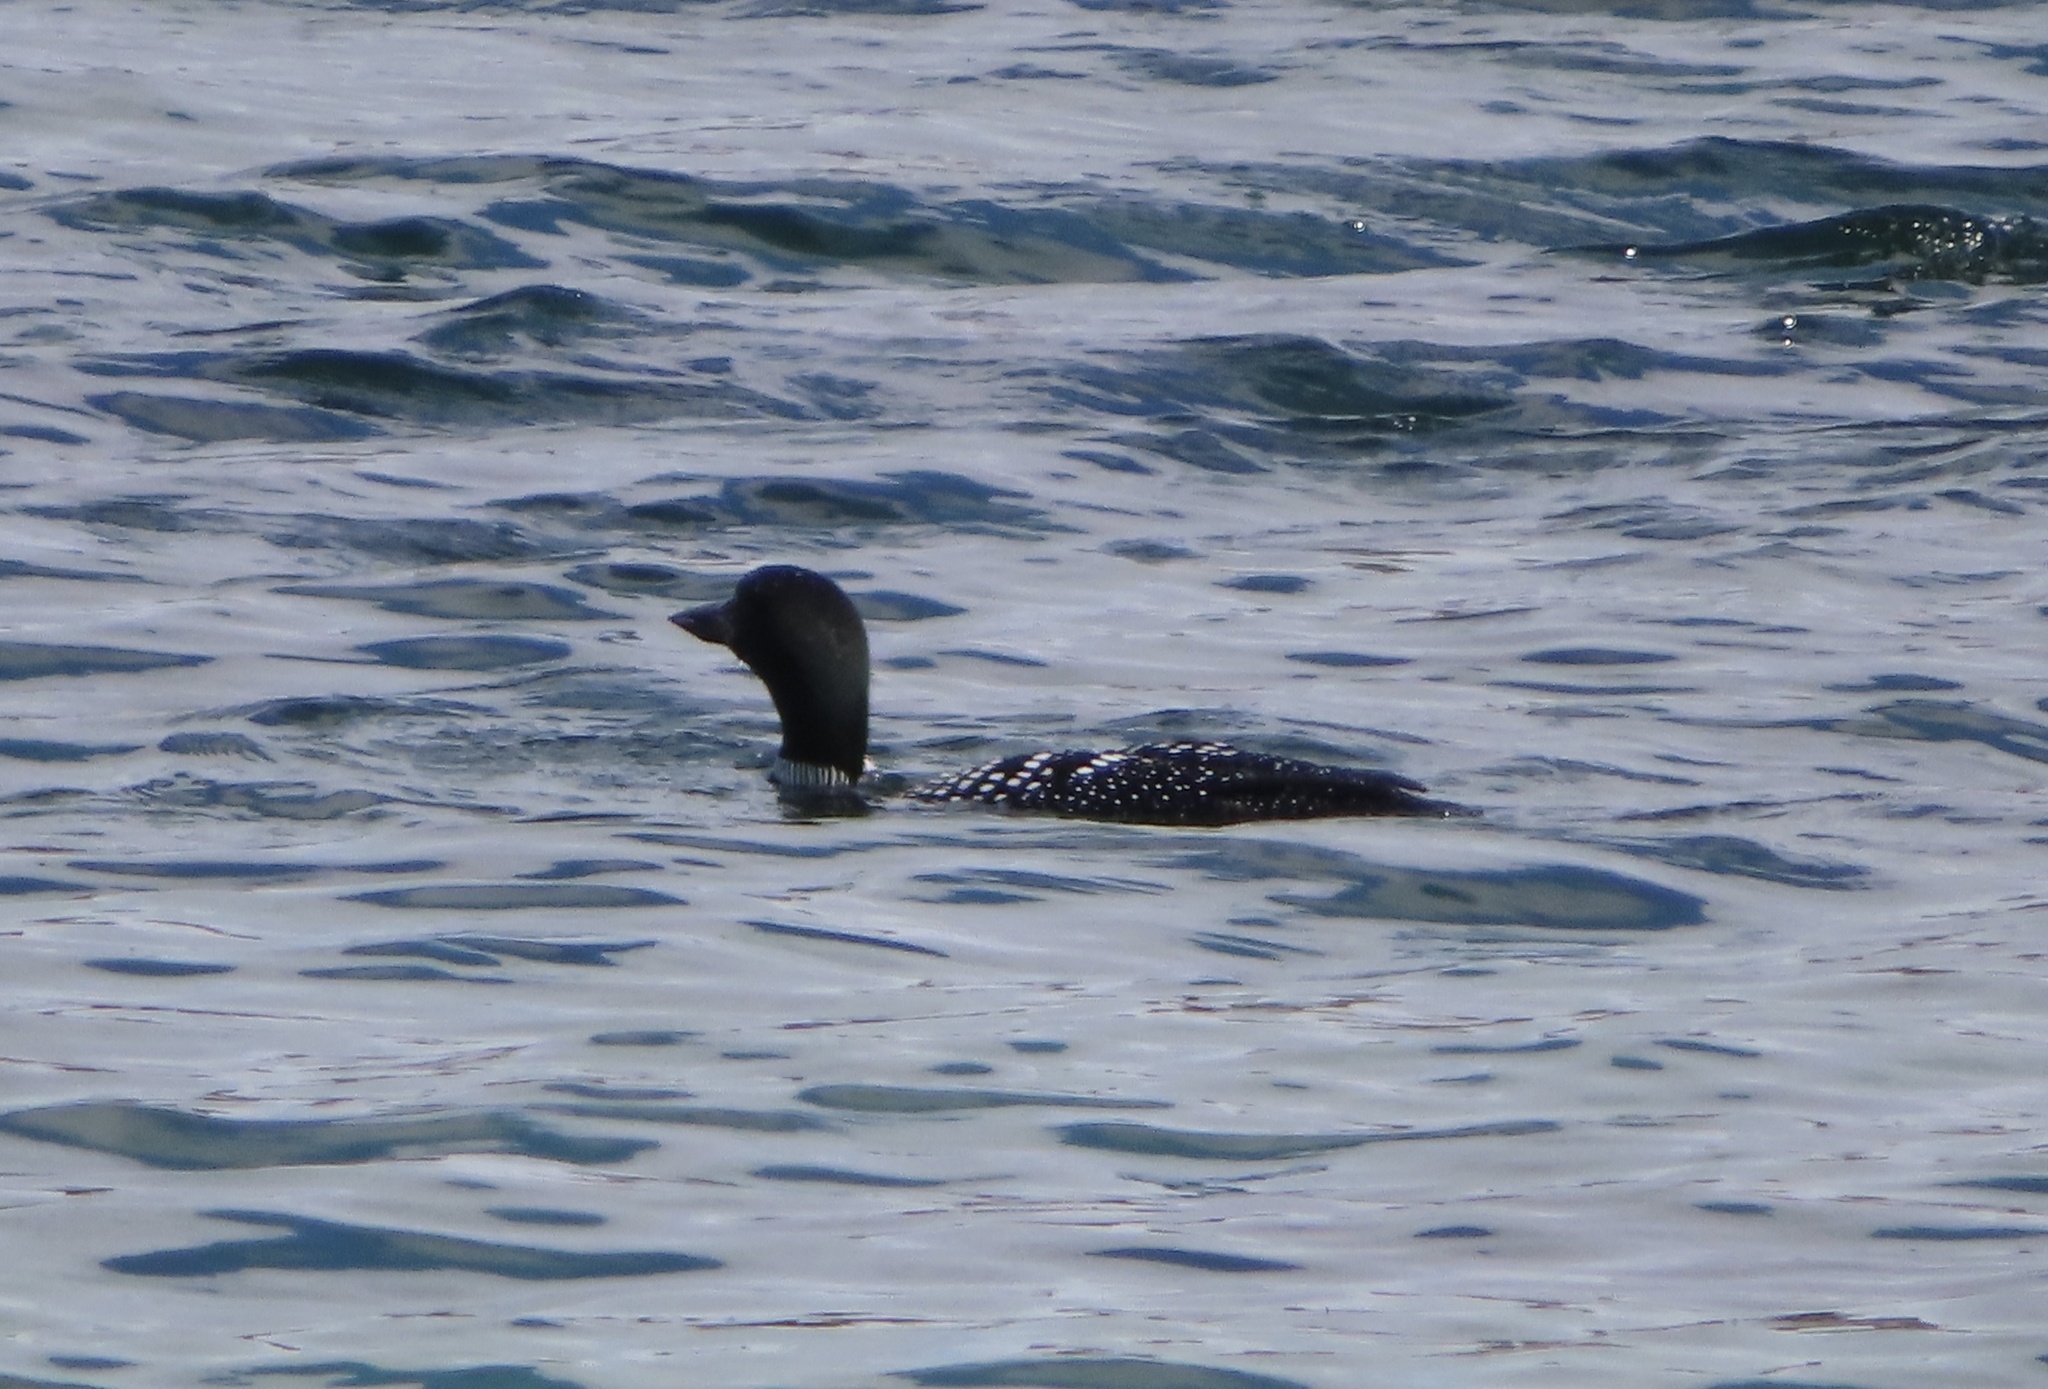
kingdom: Animalia
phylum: Chordata
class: Aves
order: Gaviiformes
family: Gaviidae
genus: Gavia
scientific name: Gavia immer
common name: Common loon
